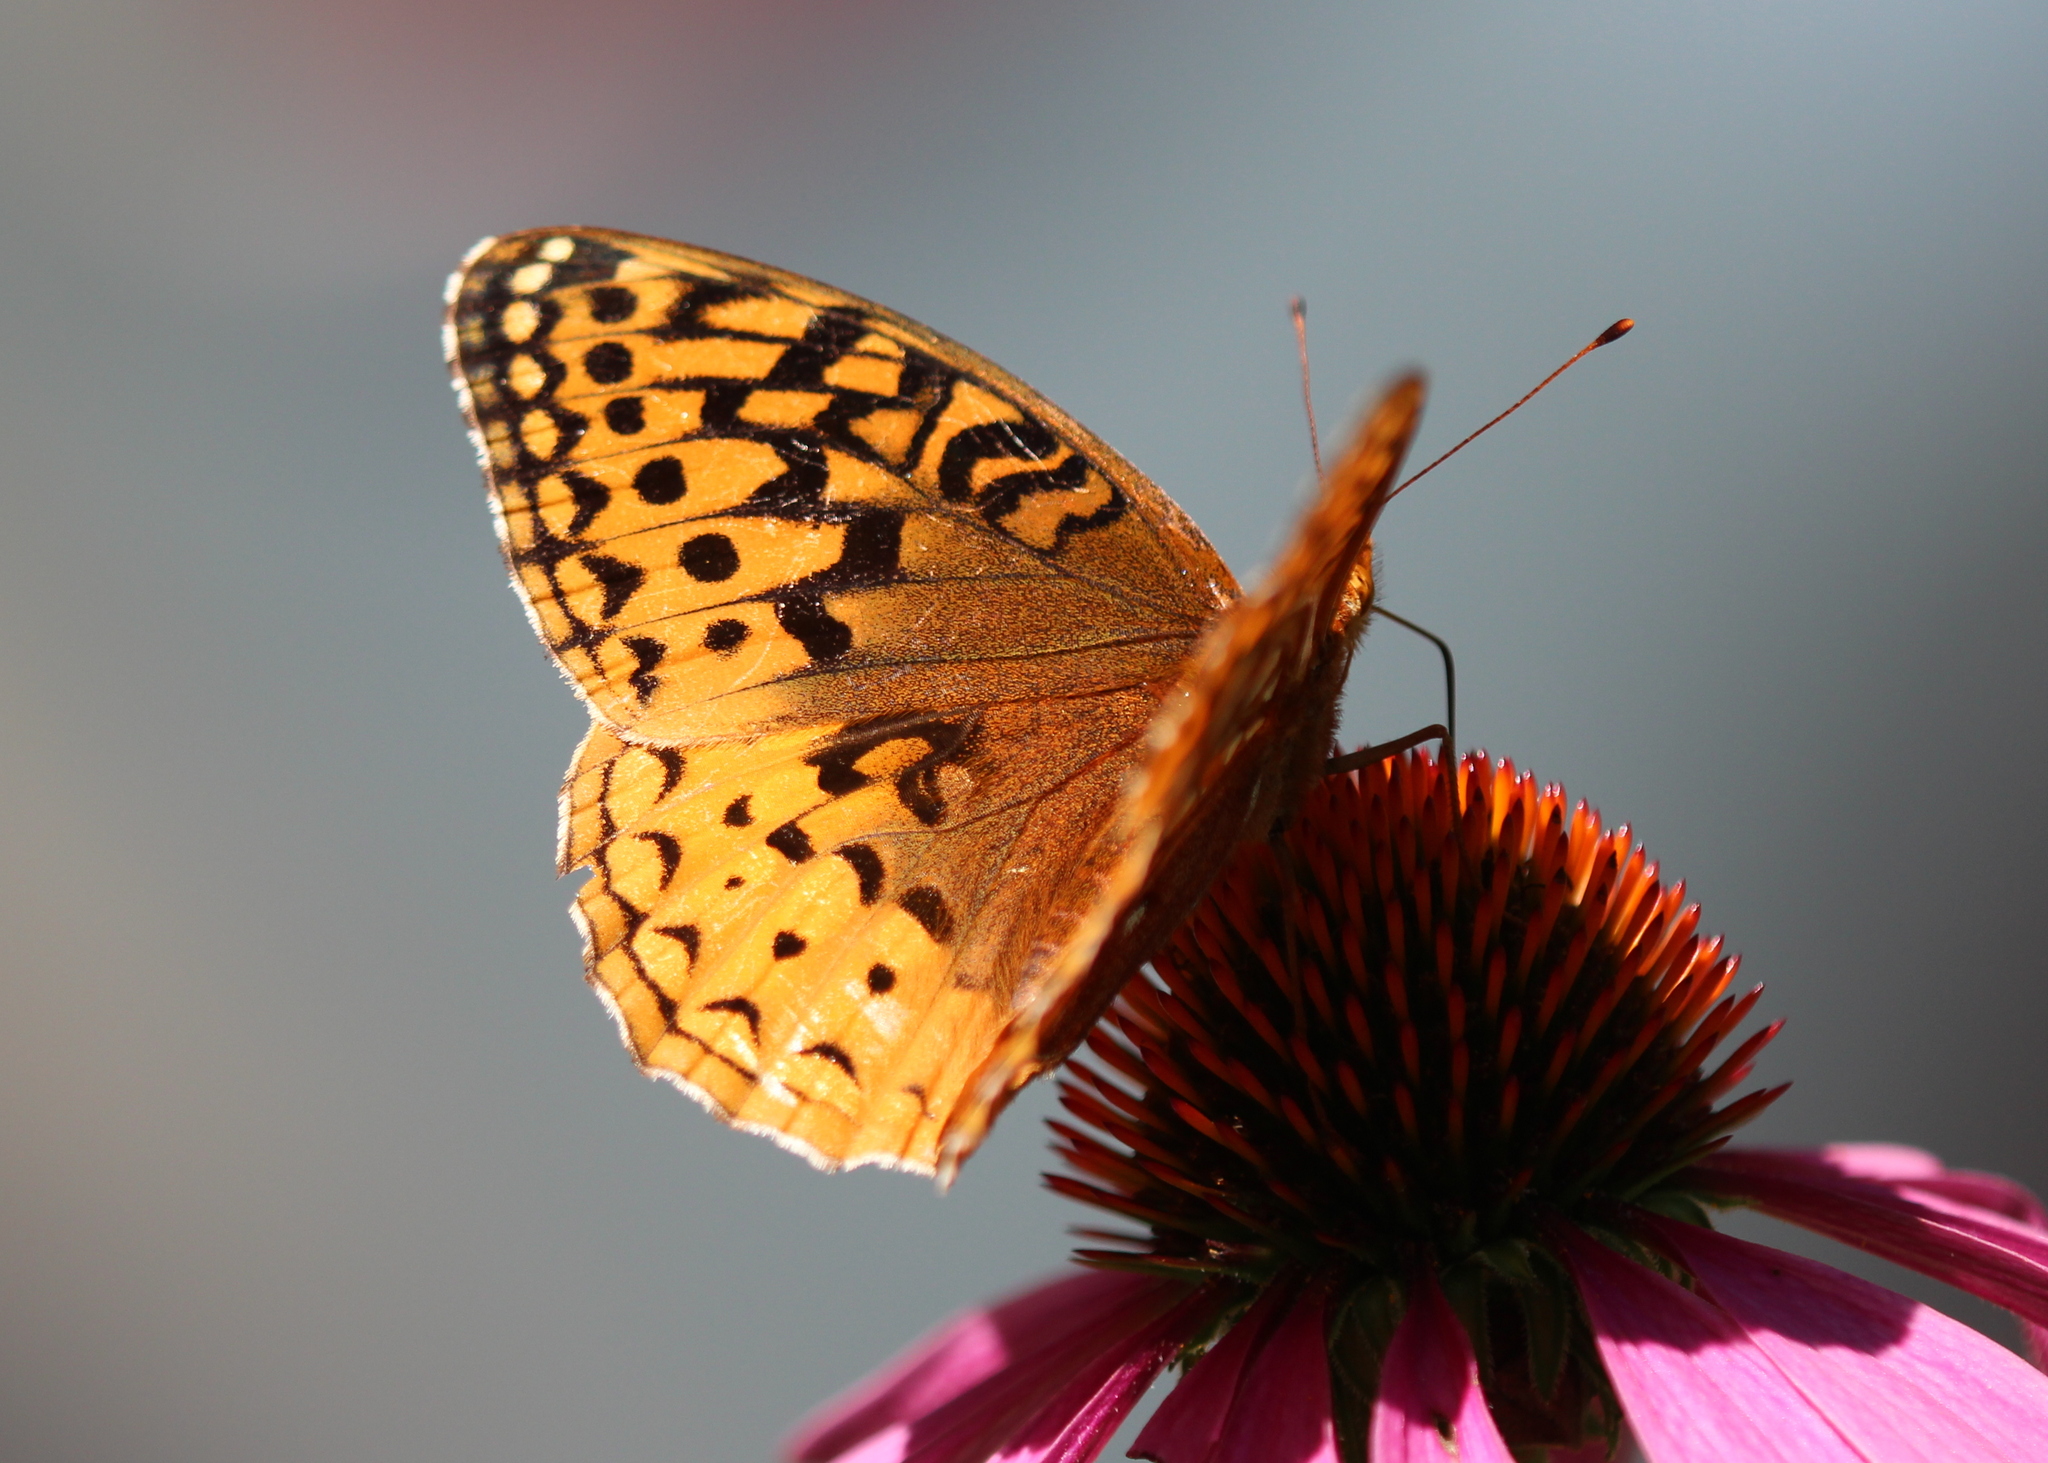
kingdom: Animalia
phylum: Arthropoda
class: Insecta
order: Lepidoptera
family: Nymphalidae
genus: Speyeria
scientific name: Speyeria cybele
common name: Great spangled fritillary
